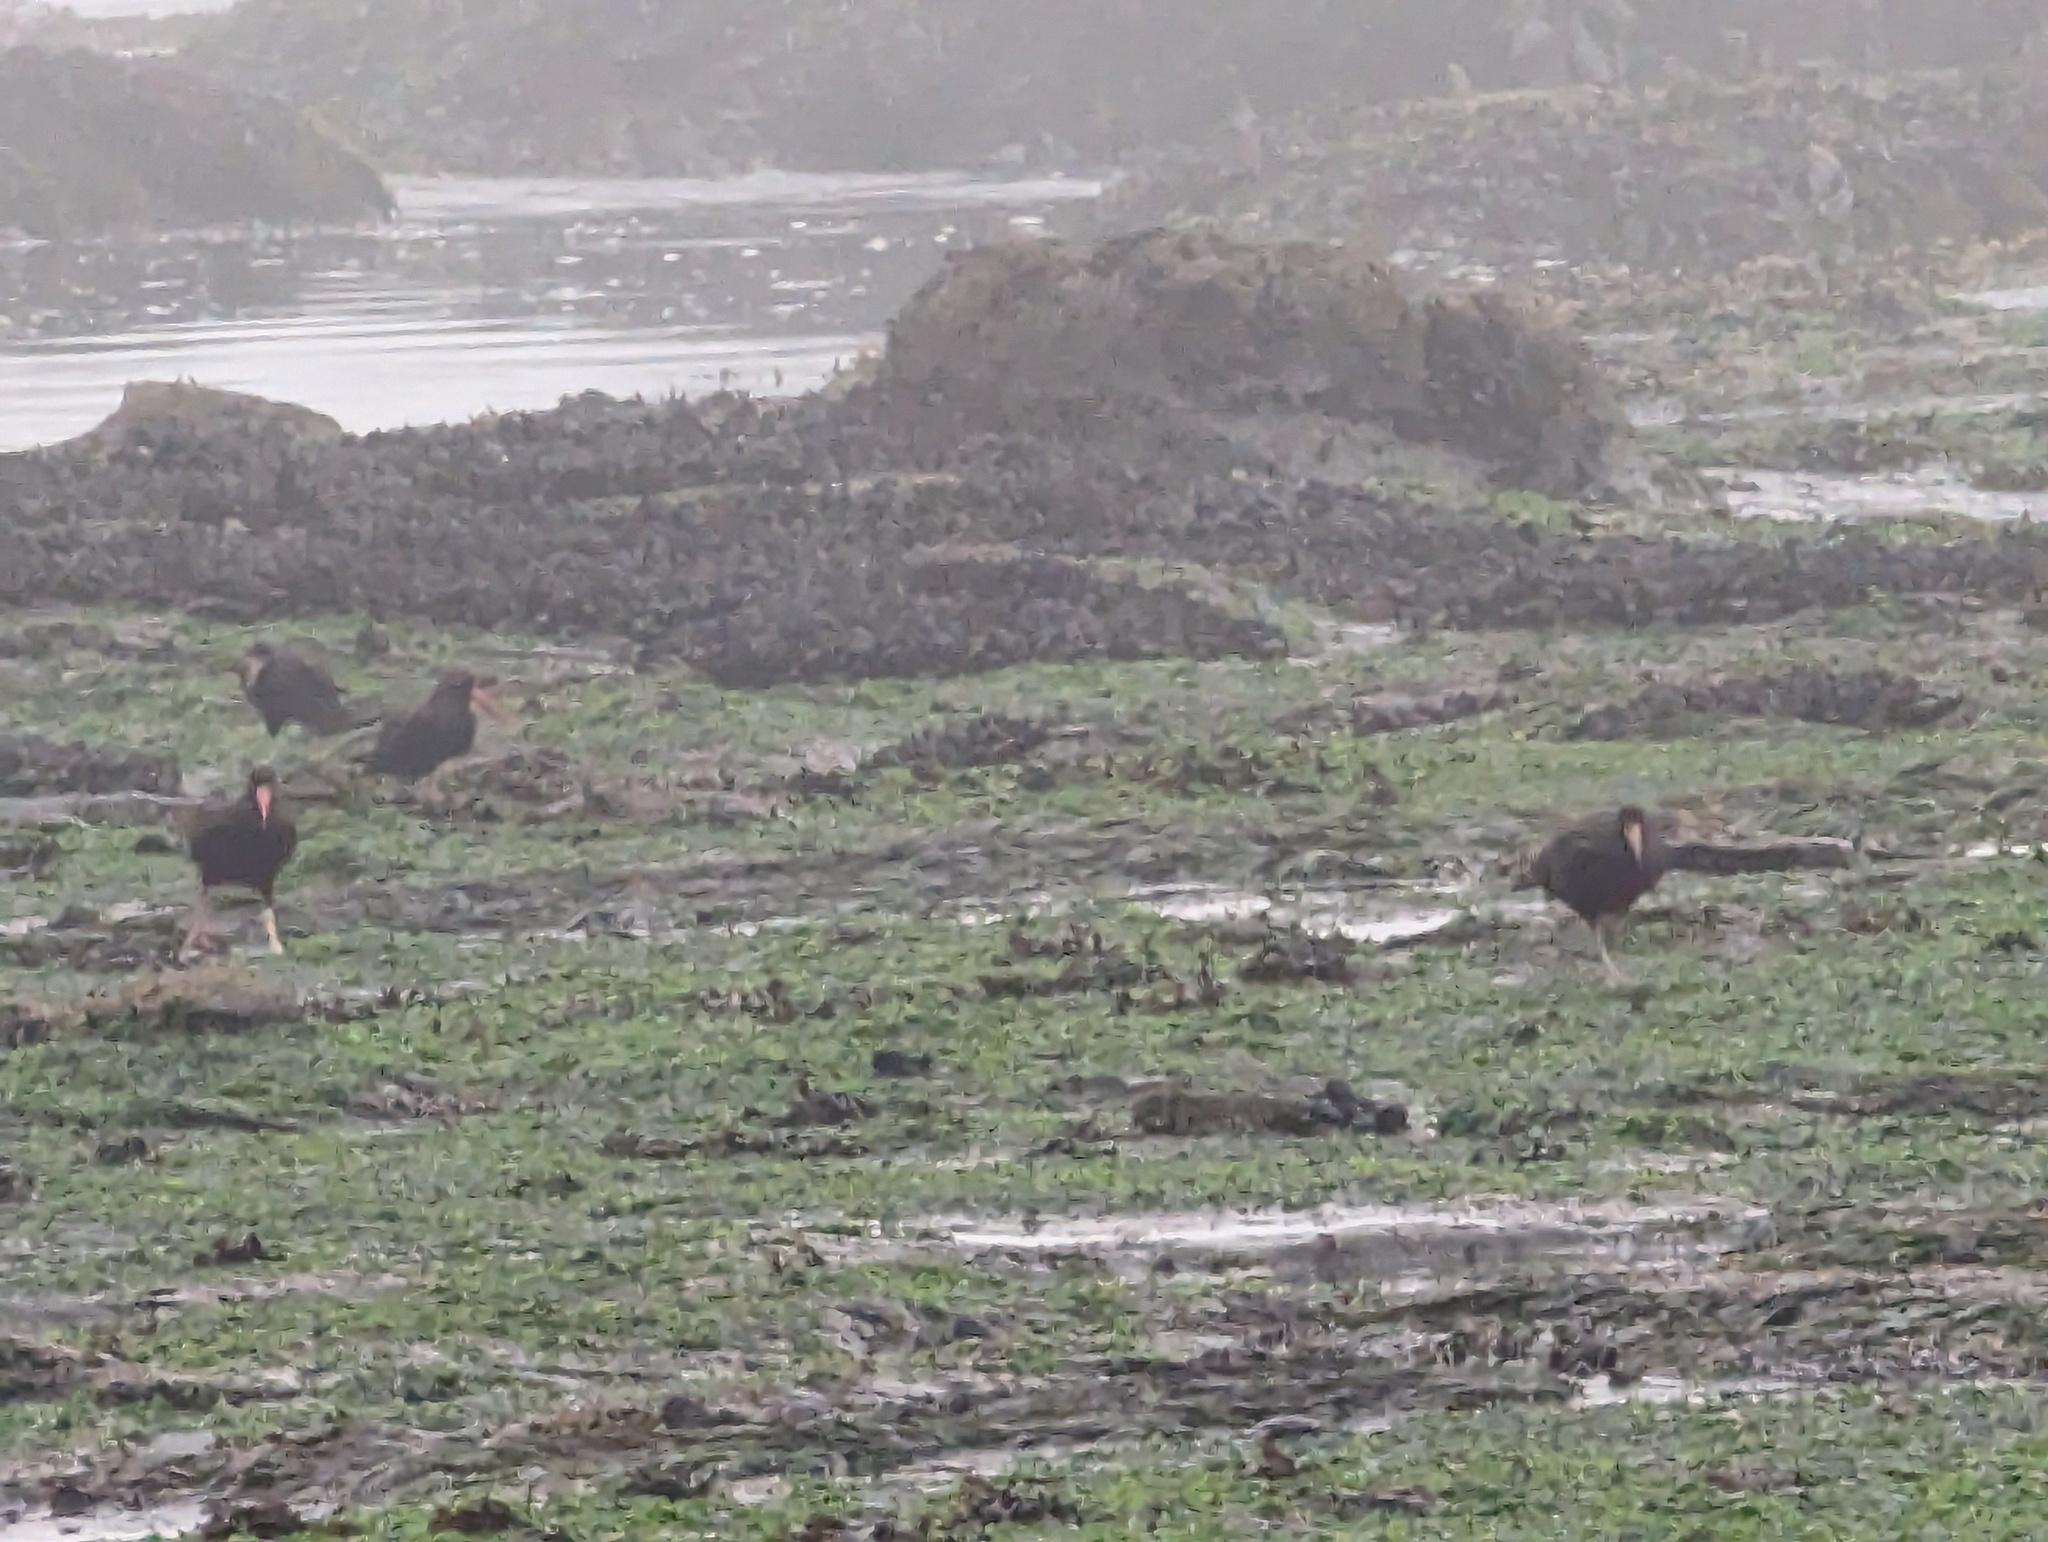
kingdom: Animalia
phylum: Chordata
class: Aves
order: Charadriiformes
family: Haematopodidae
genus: Haematopus
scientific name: Haematopus bachmani
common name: Black oystercatcher
